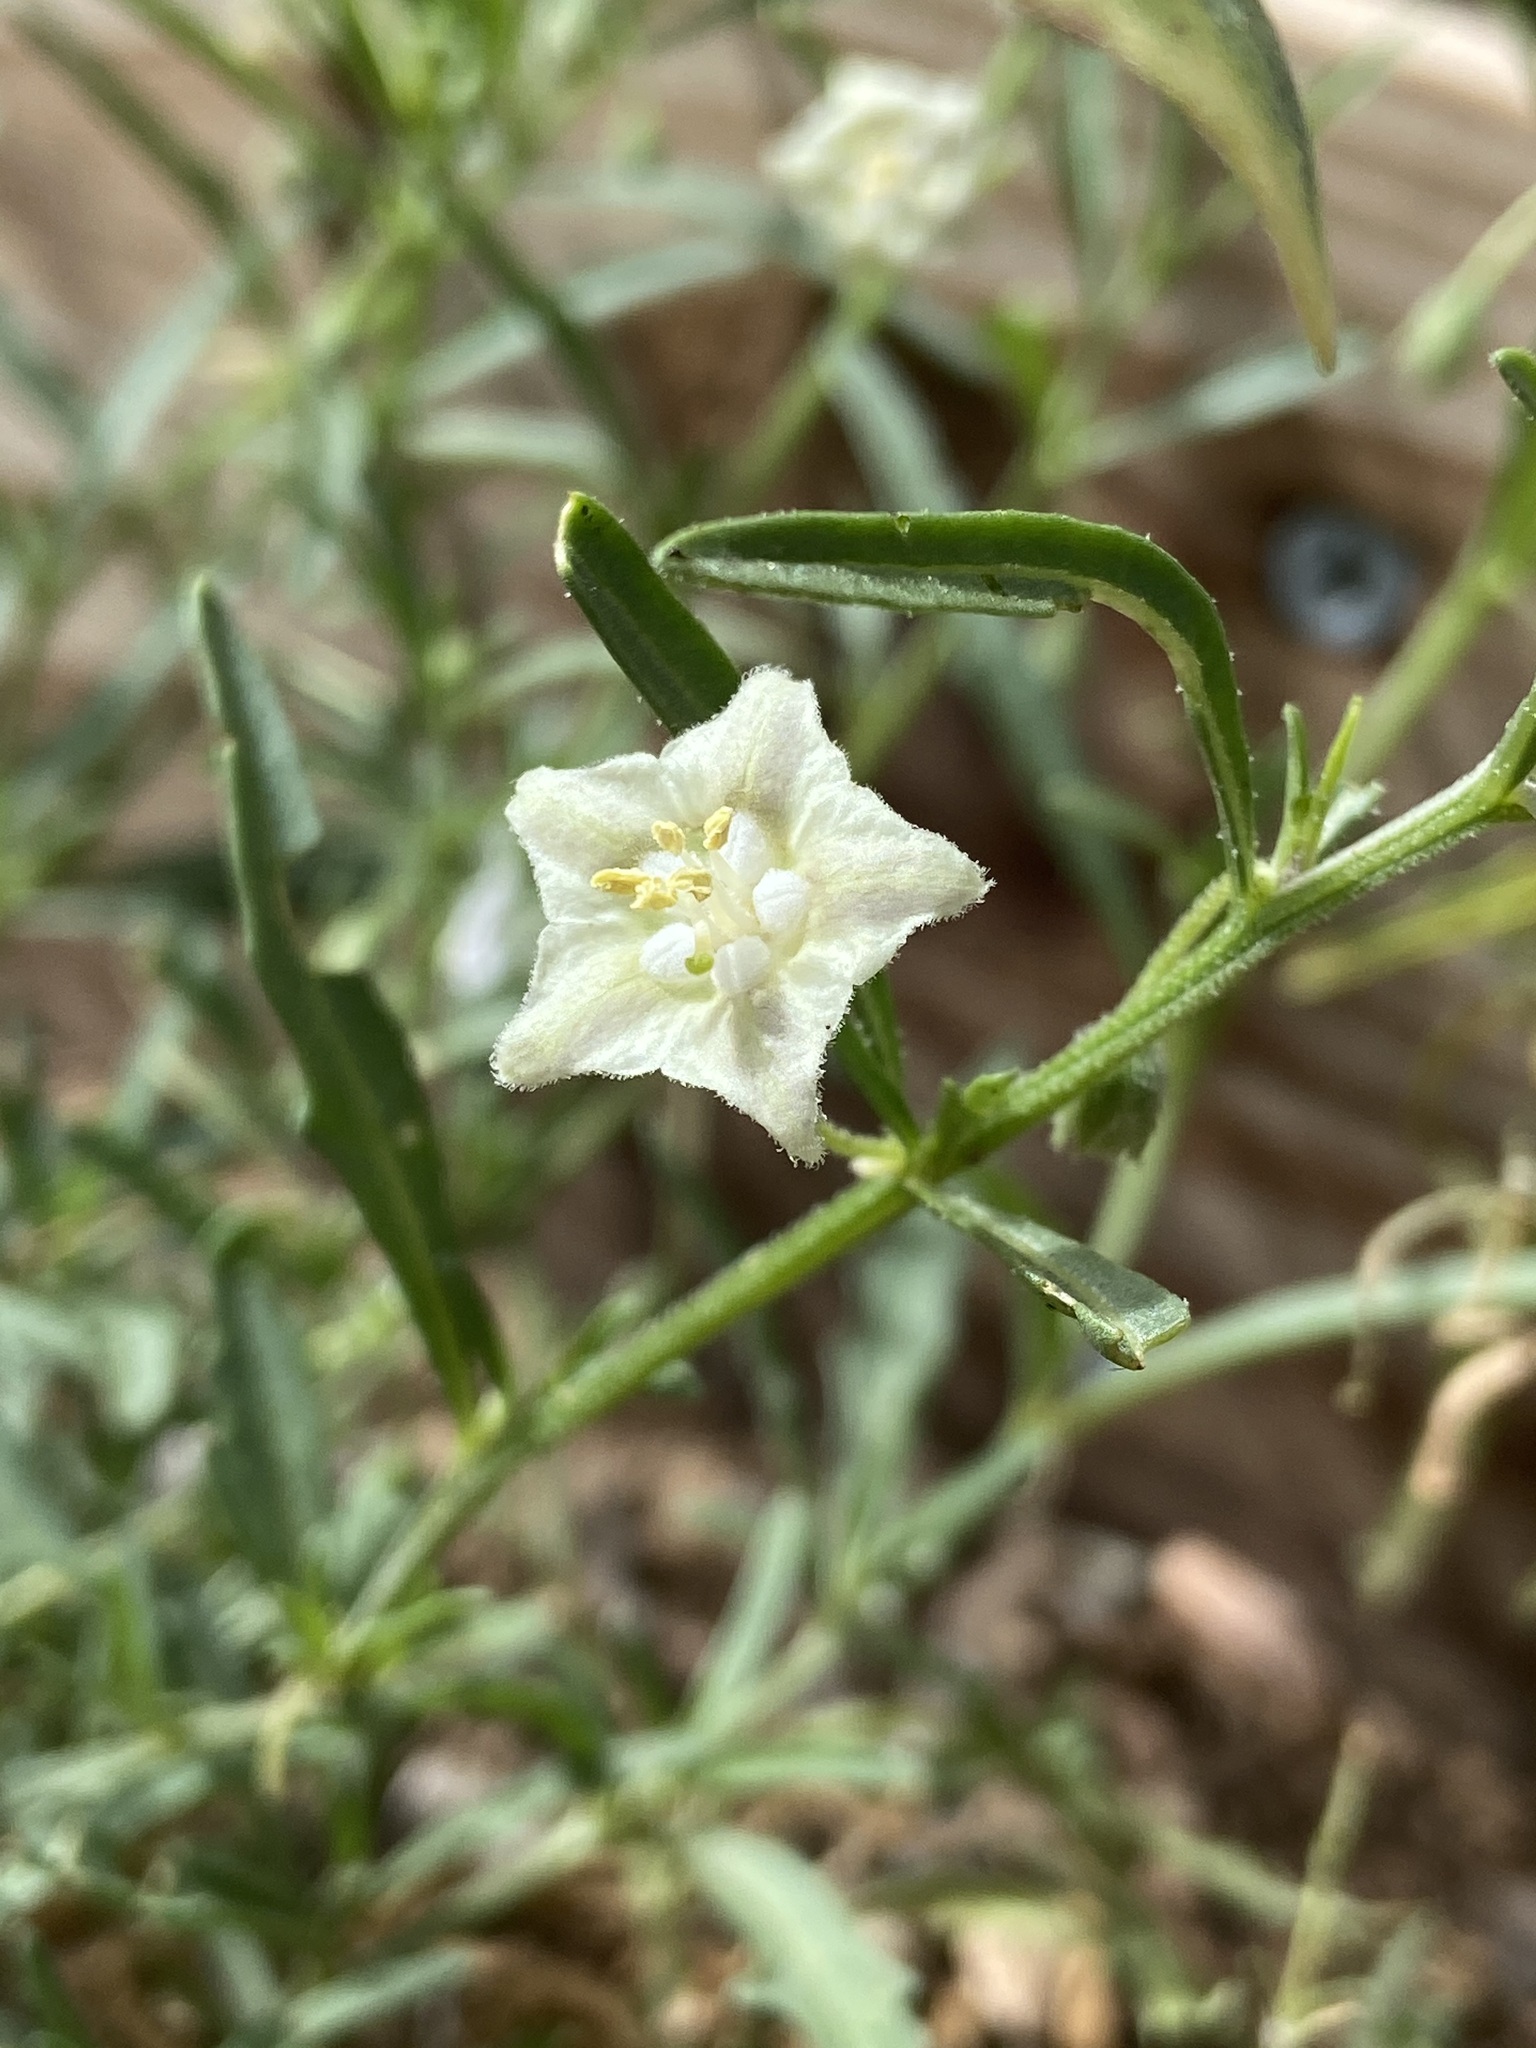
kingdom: Plantae
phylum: Tracheophyta
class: Magnoliopsida
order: Solanales
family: Solanaceae
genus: Chamaesaracha
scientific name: Chamaesaracha coronopus
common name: Smooth chamaesaracha
